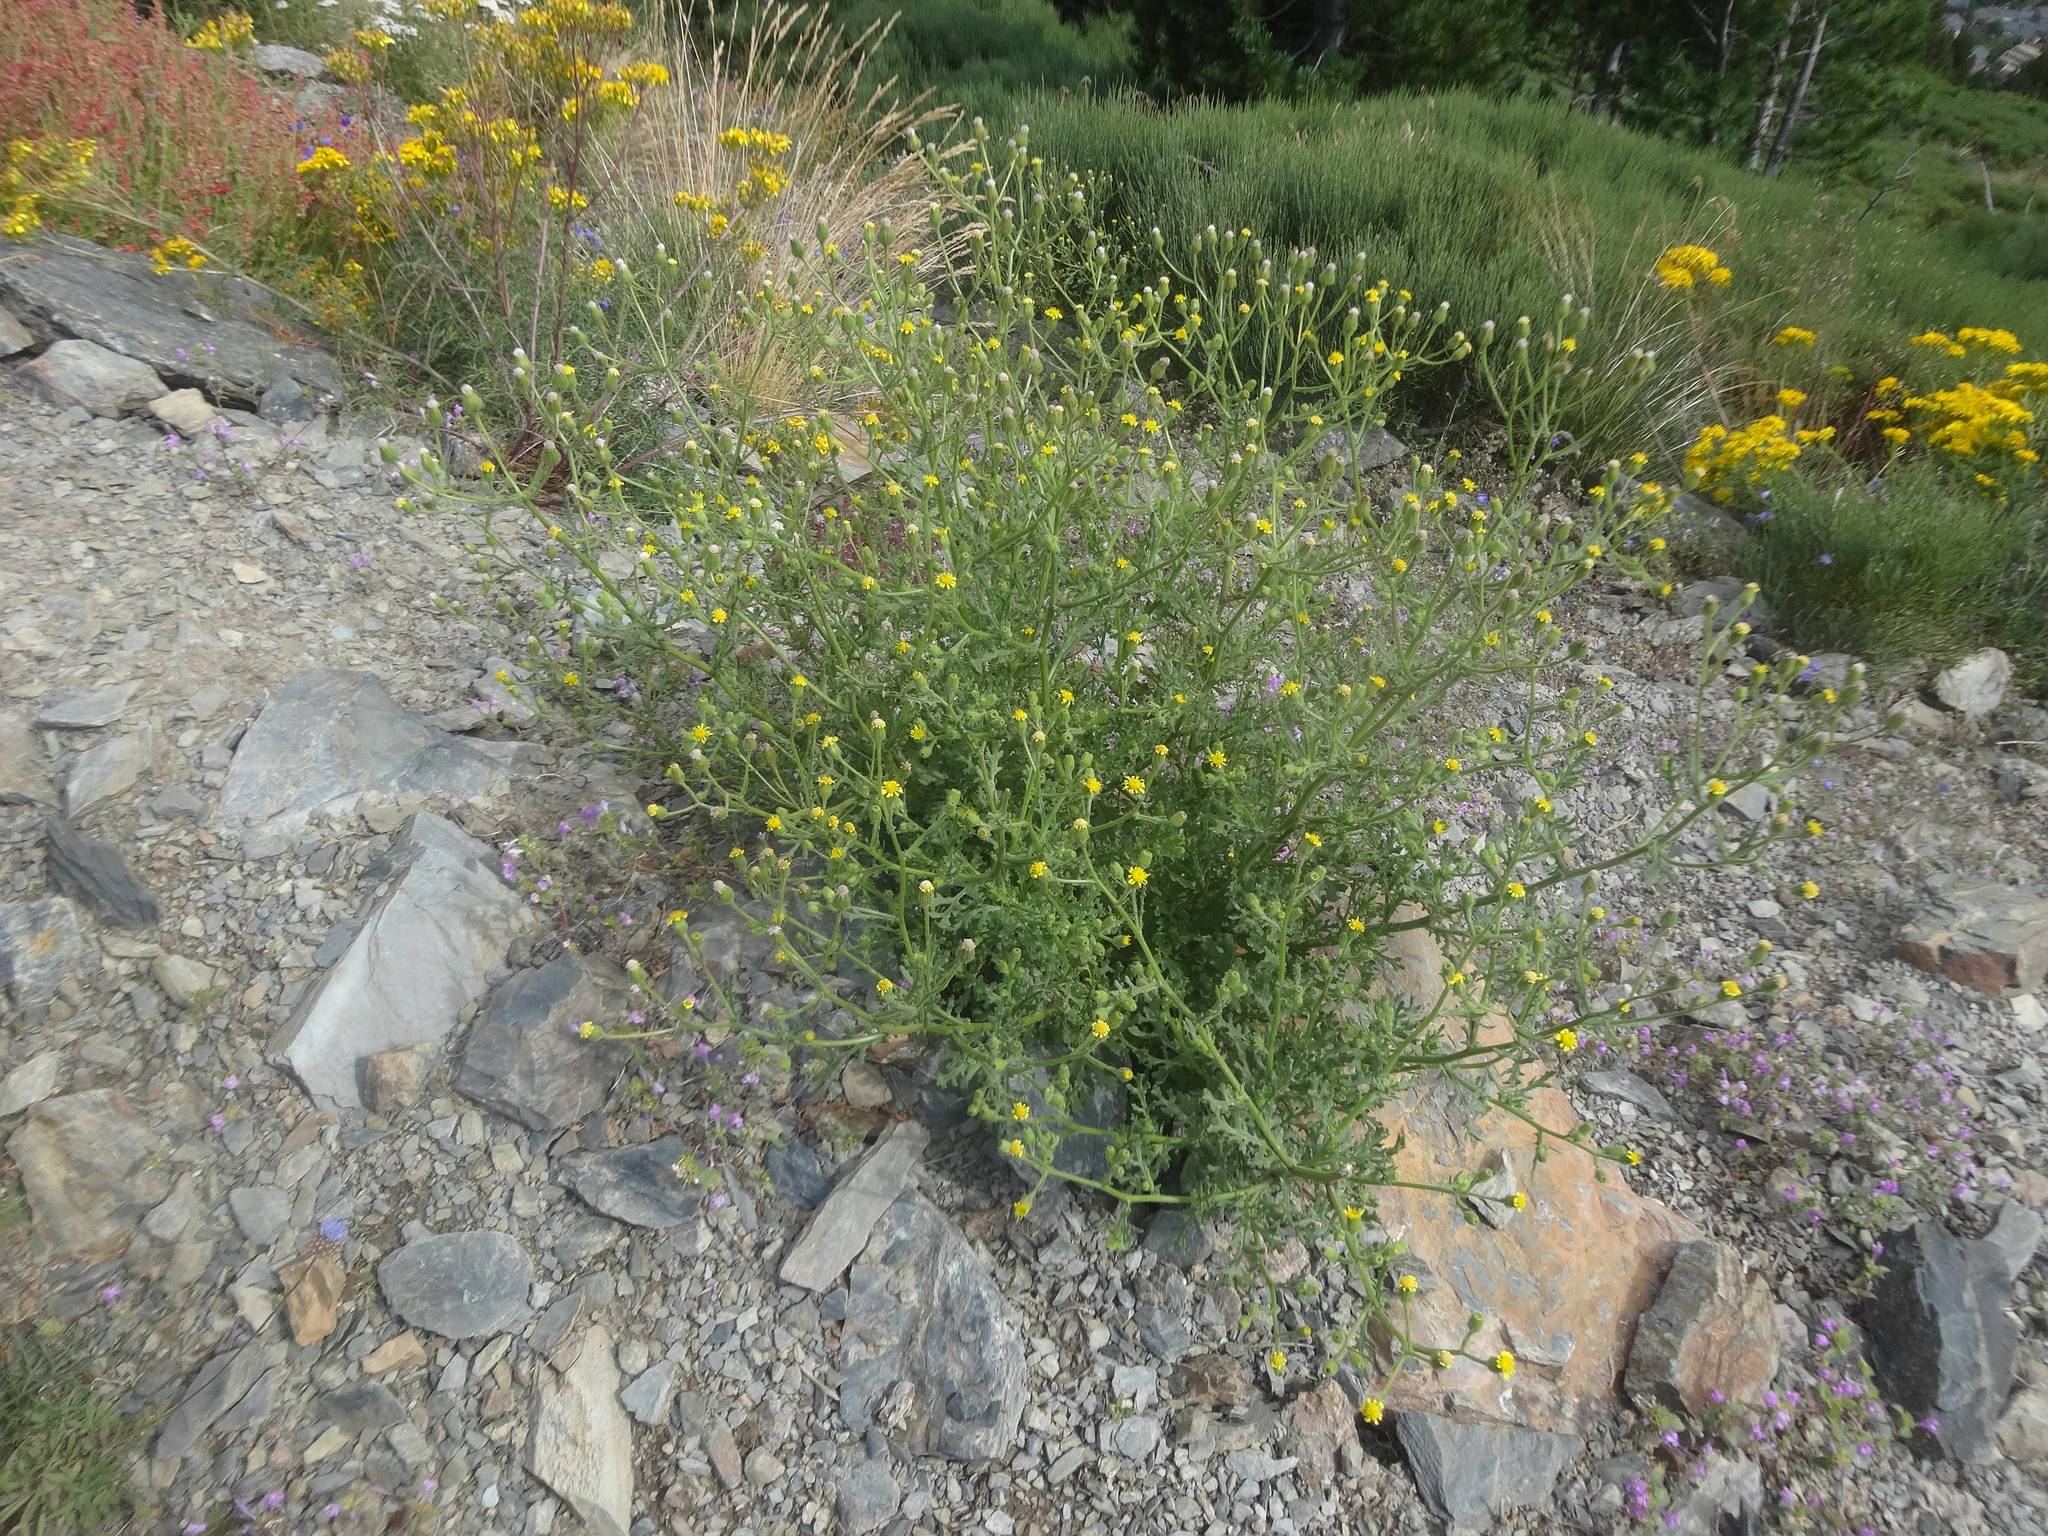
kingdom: Plantae
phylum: Tracheophyta
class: Magnoliopsida
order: Asterales
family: Asteraceae
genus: Senecio
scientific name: Senecio viscosus
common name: Sticky groundsel
